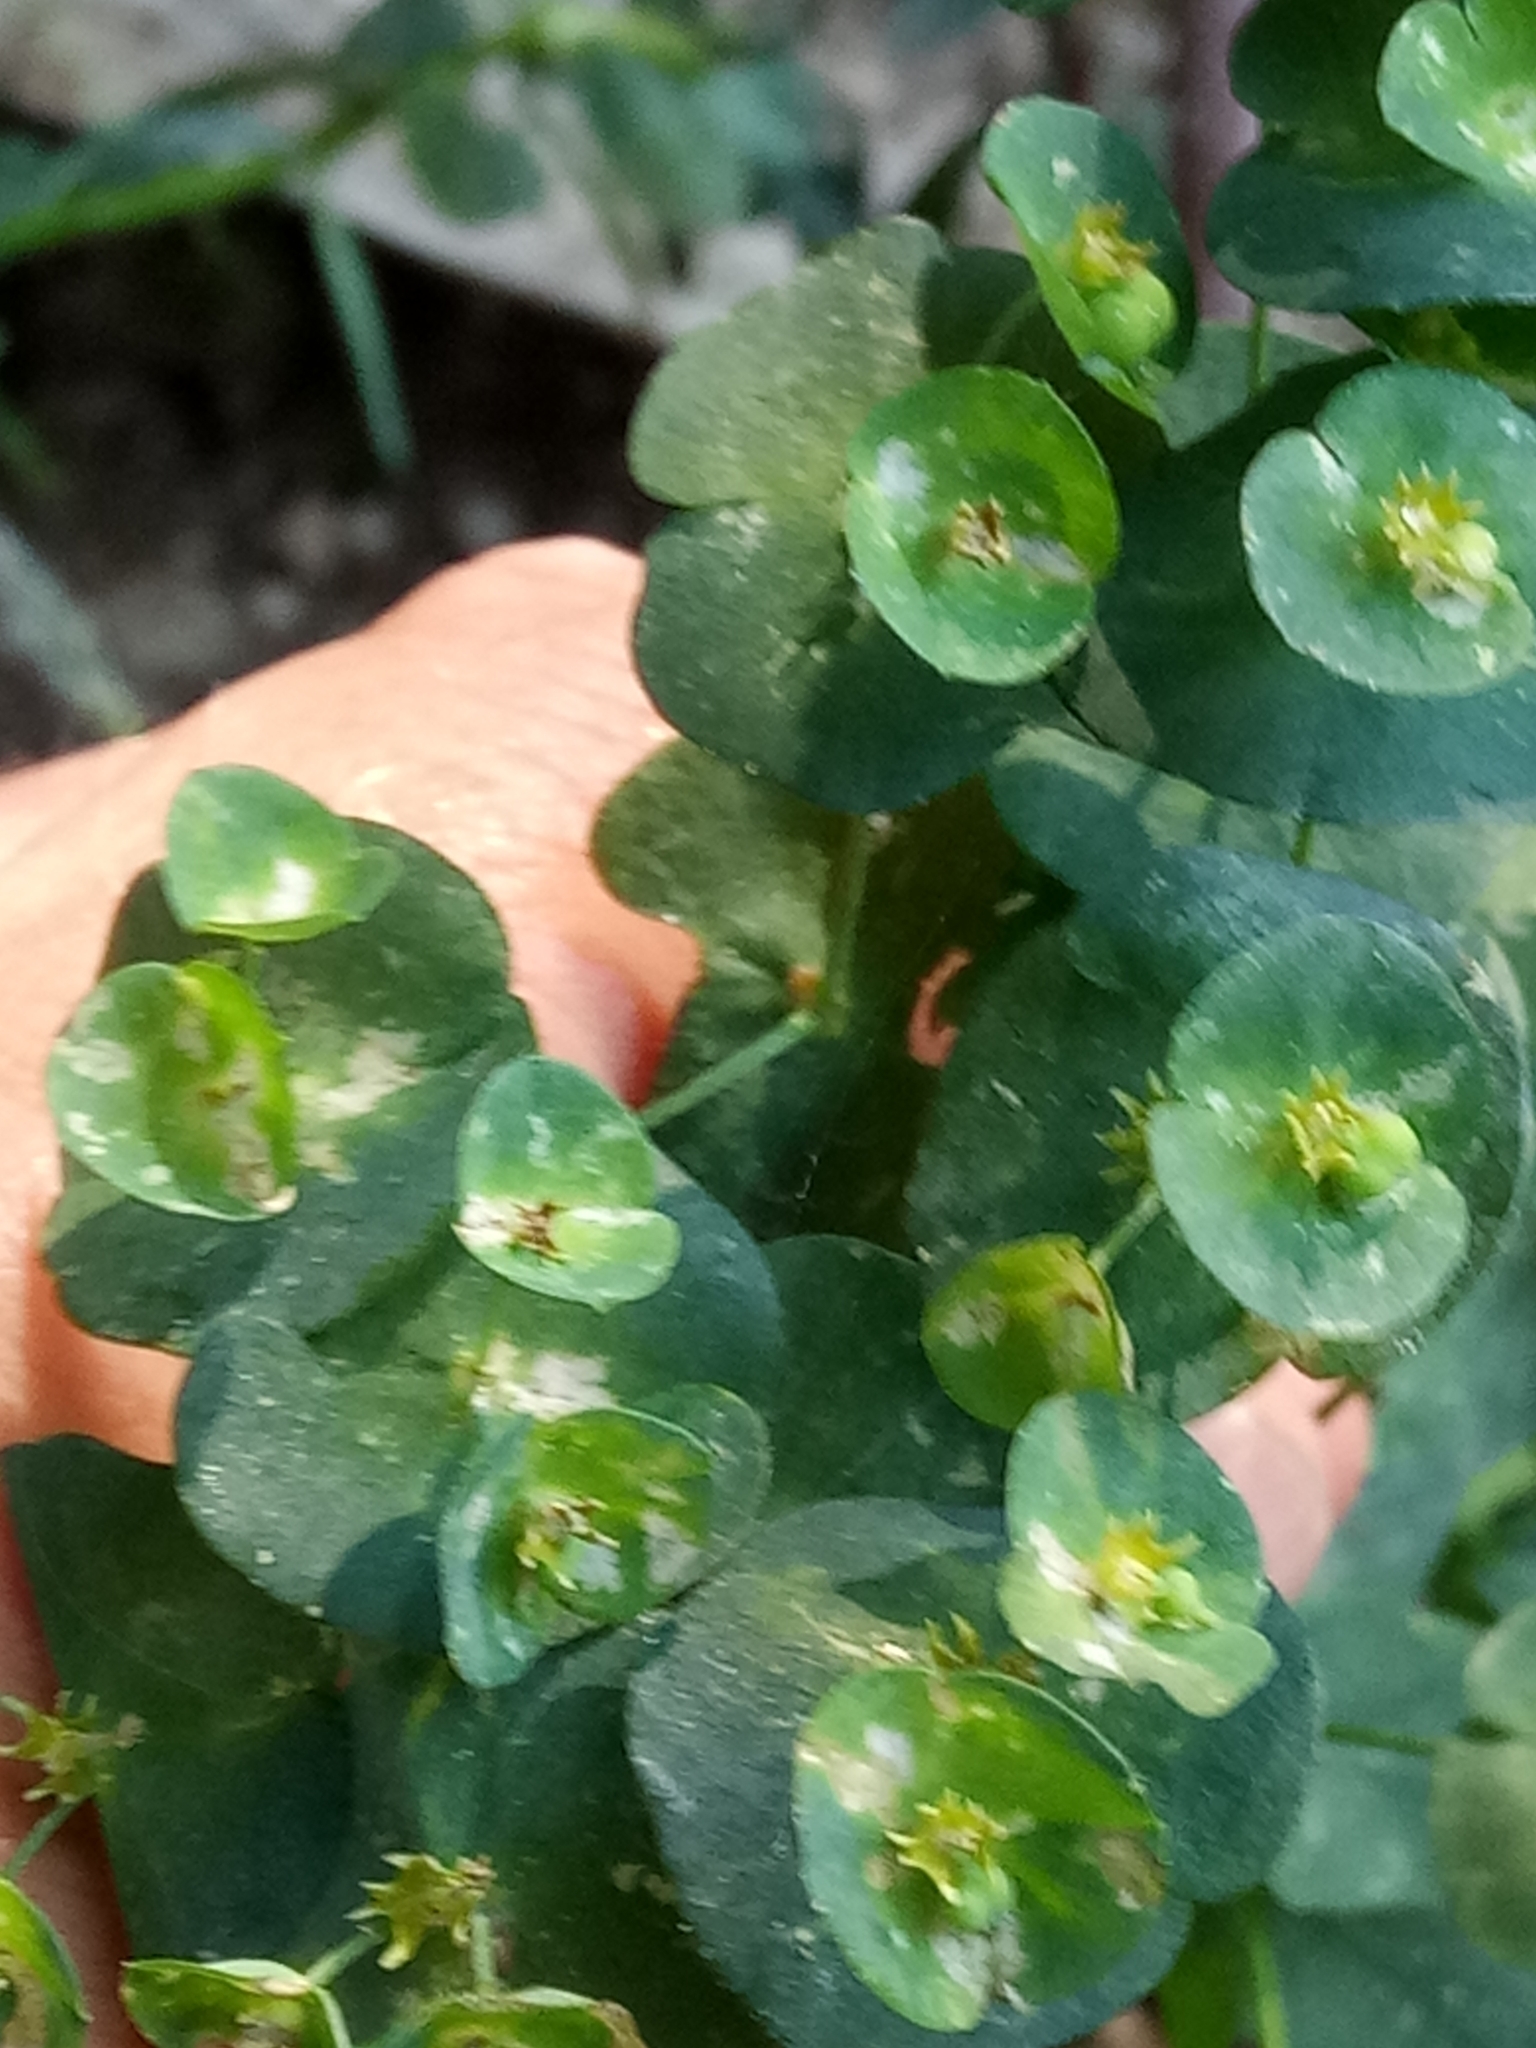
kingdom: Plantae
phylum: Tracheophyta
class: Magnoliopsida
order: Malpighiales
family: Euphorbiaceae
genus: Euphorbia
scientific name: Euphorbia semiperfoliata
